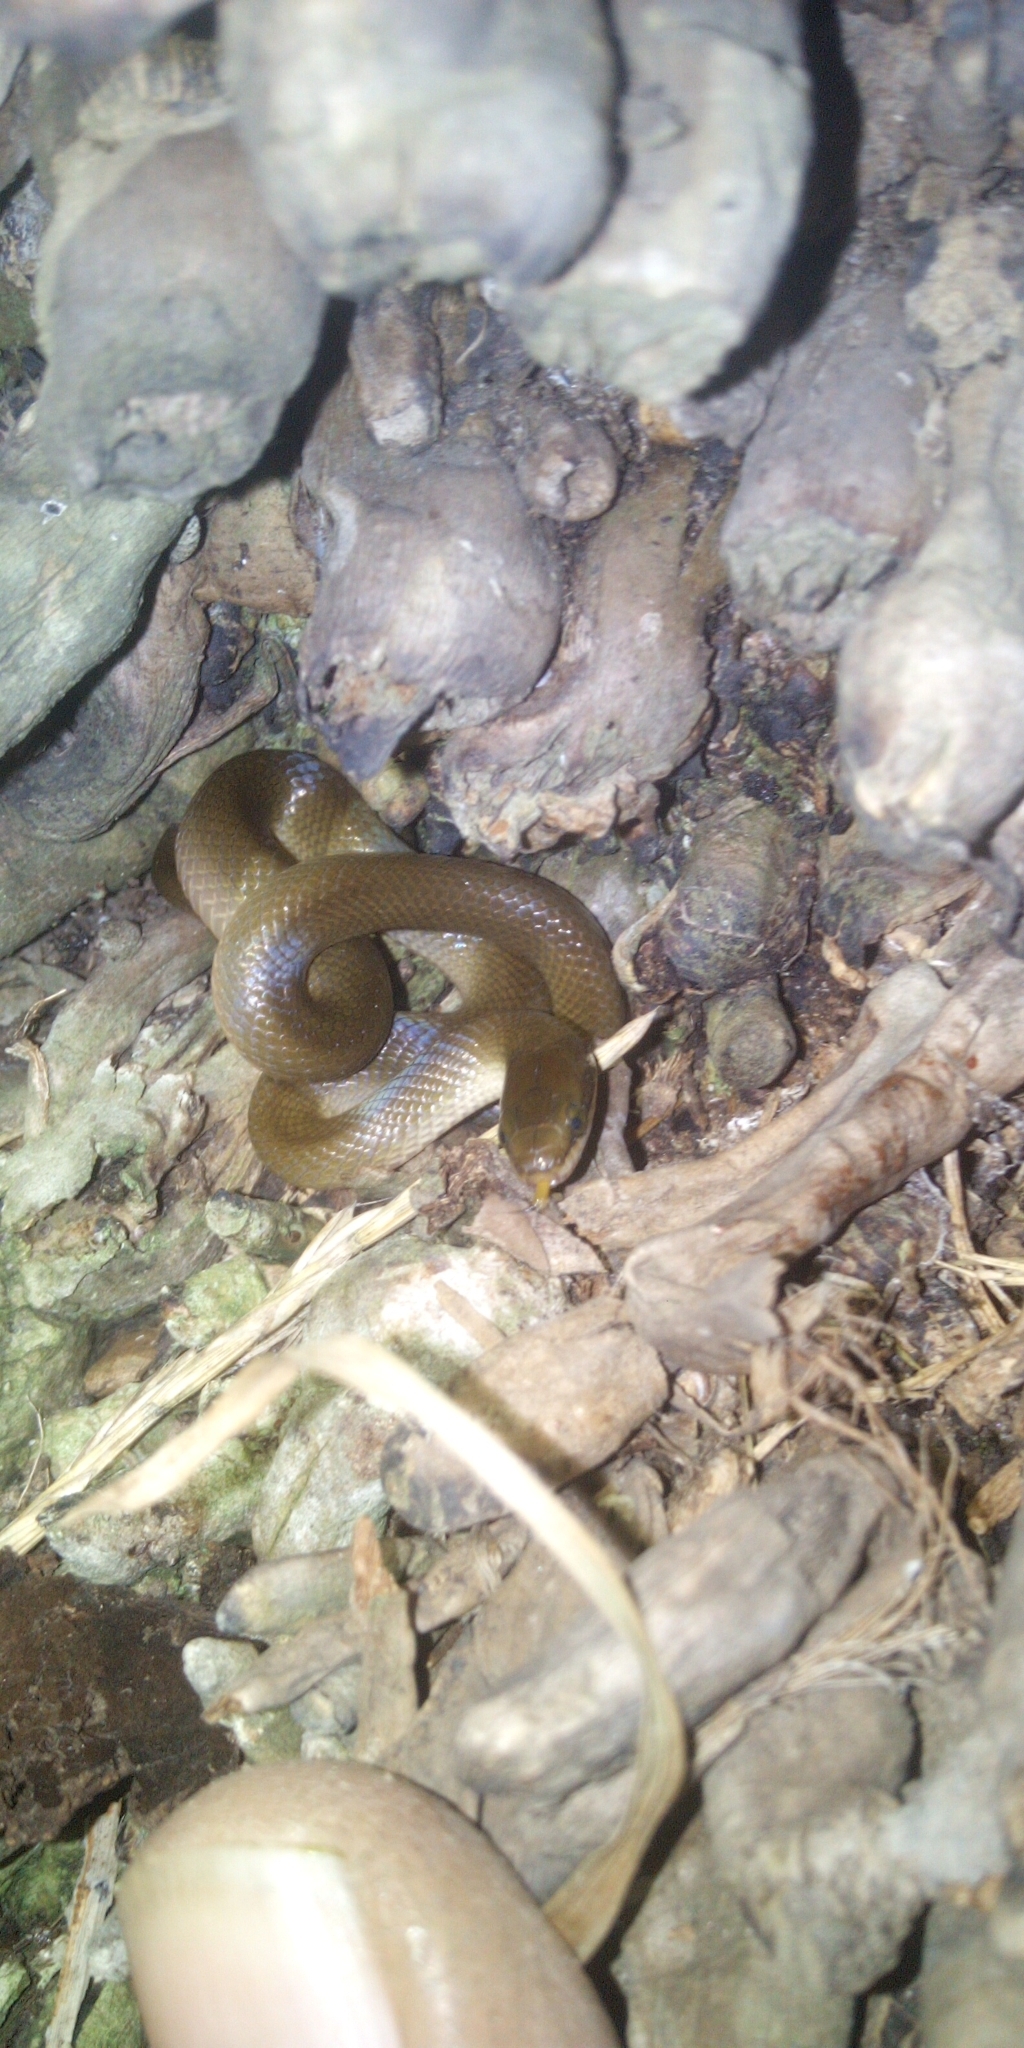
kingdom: Animalia
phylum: Chordata
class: Squamata
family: Lamprophiidae
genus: Lycodonomorphus
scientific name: Lycodonomorphus rufulus
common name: Brown water snake
